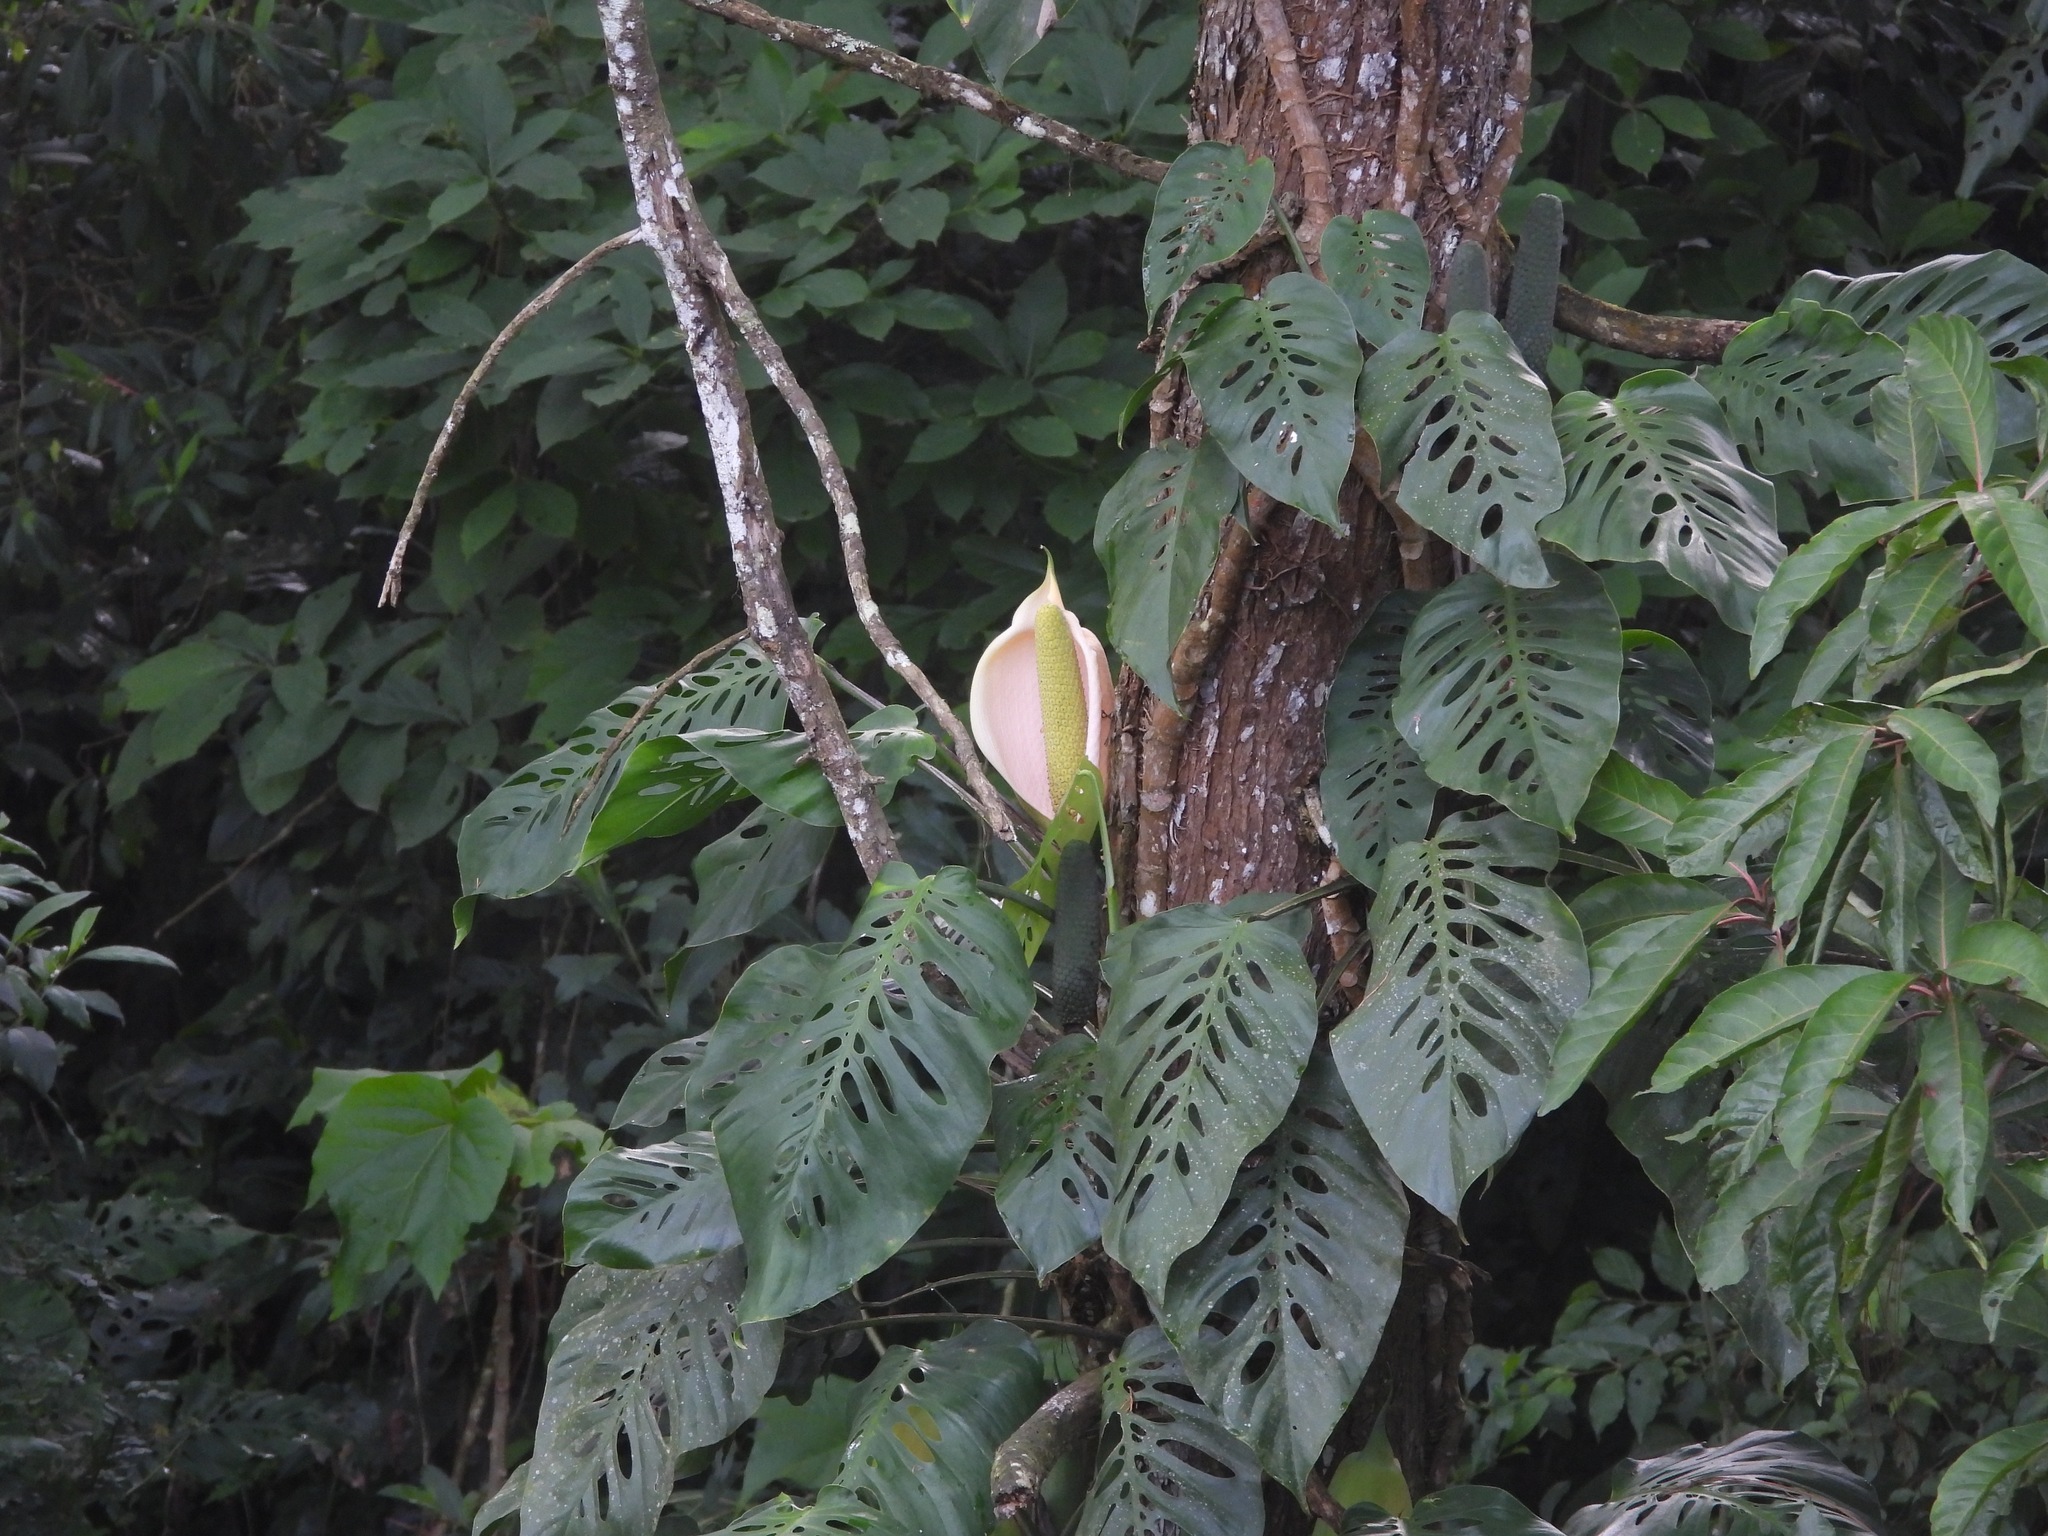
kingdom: Plantae
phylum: Tracheophyta
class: Liliopsida
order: Alismatales
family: Araceae
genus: Monstera
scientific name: Monstera siltepecana
